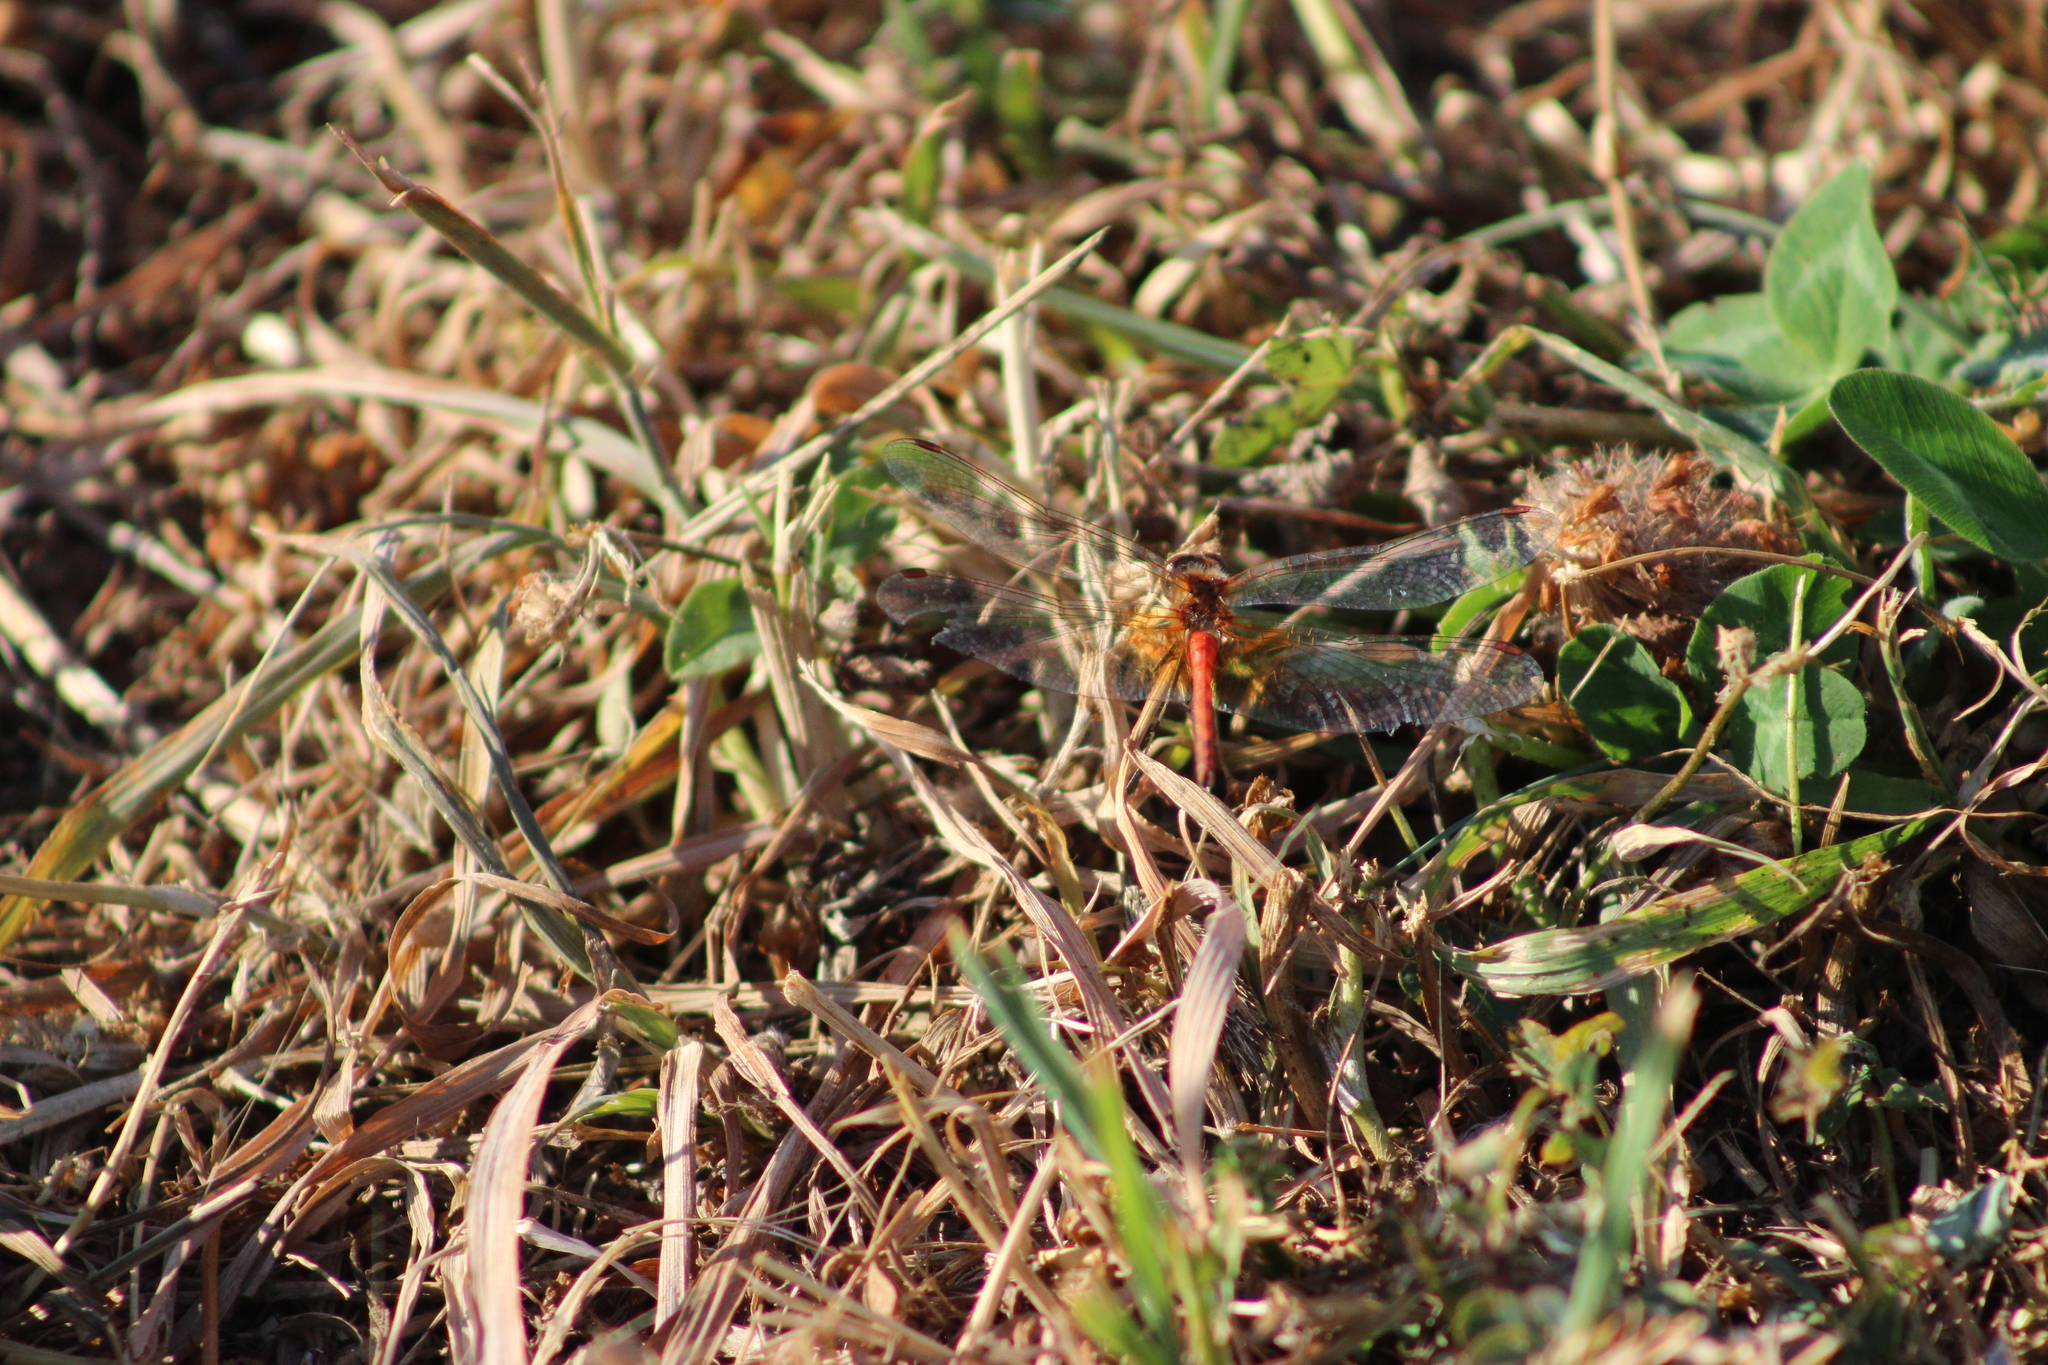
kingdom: Animalia
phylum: Arthropoda
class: Insecta
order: Odonata
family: Libellulidae
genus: Sympetrum
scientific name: Sympetrum flaveolum
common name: Yellow-winged darter
